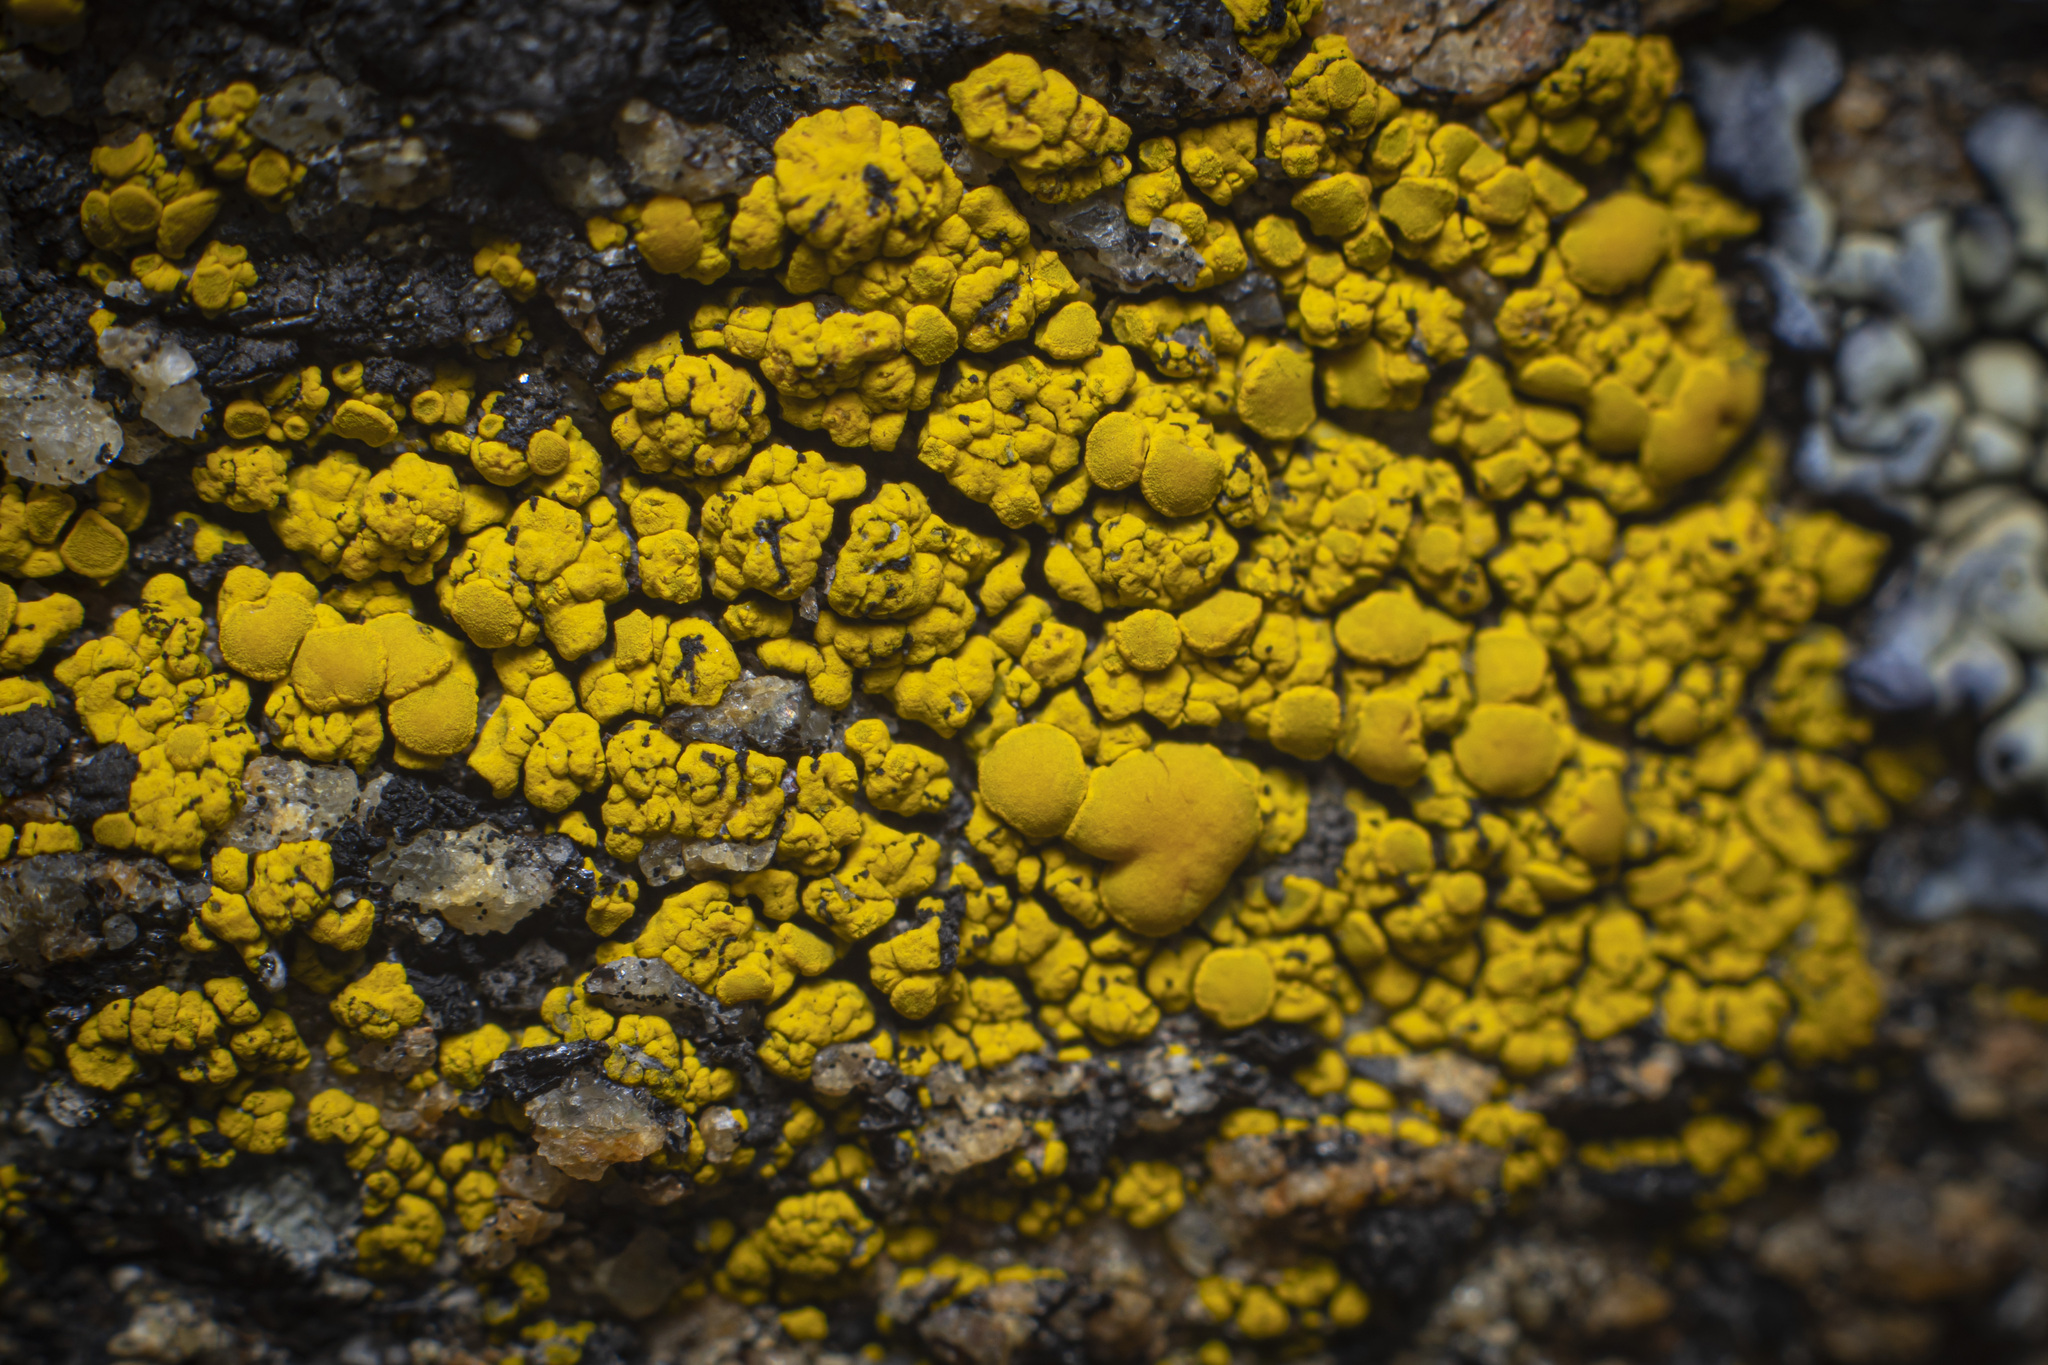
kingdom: Fungi
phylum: Ascomycota
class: Candelariomycetes
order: Candelariales
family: Candelariaceae
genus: Candelariella
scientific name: Candelariella rosulans
